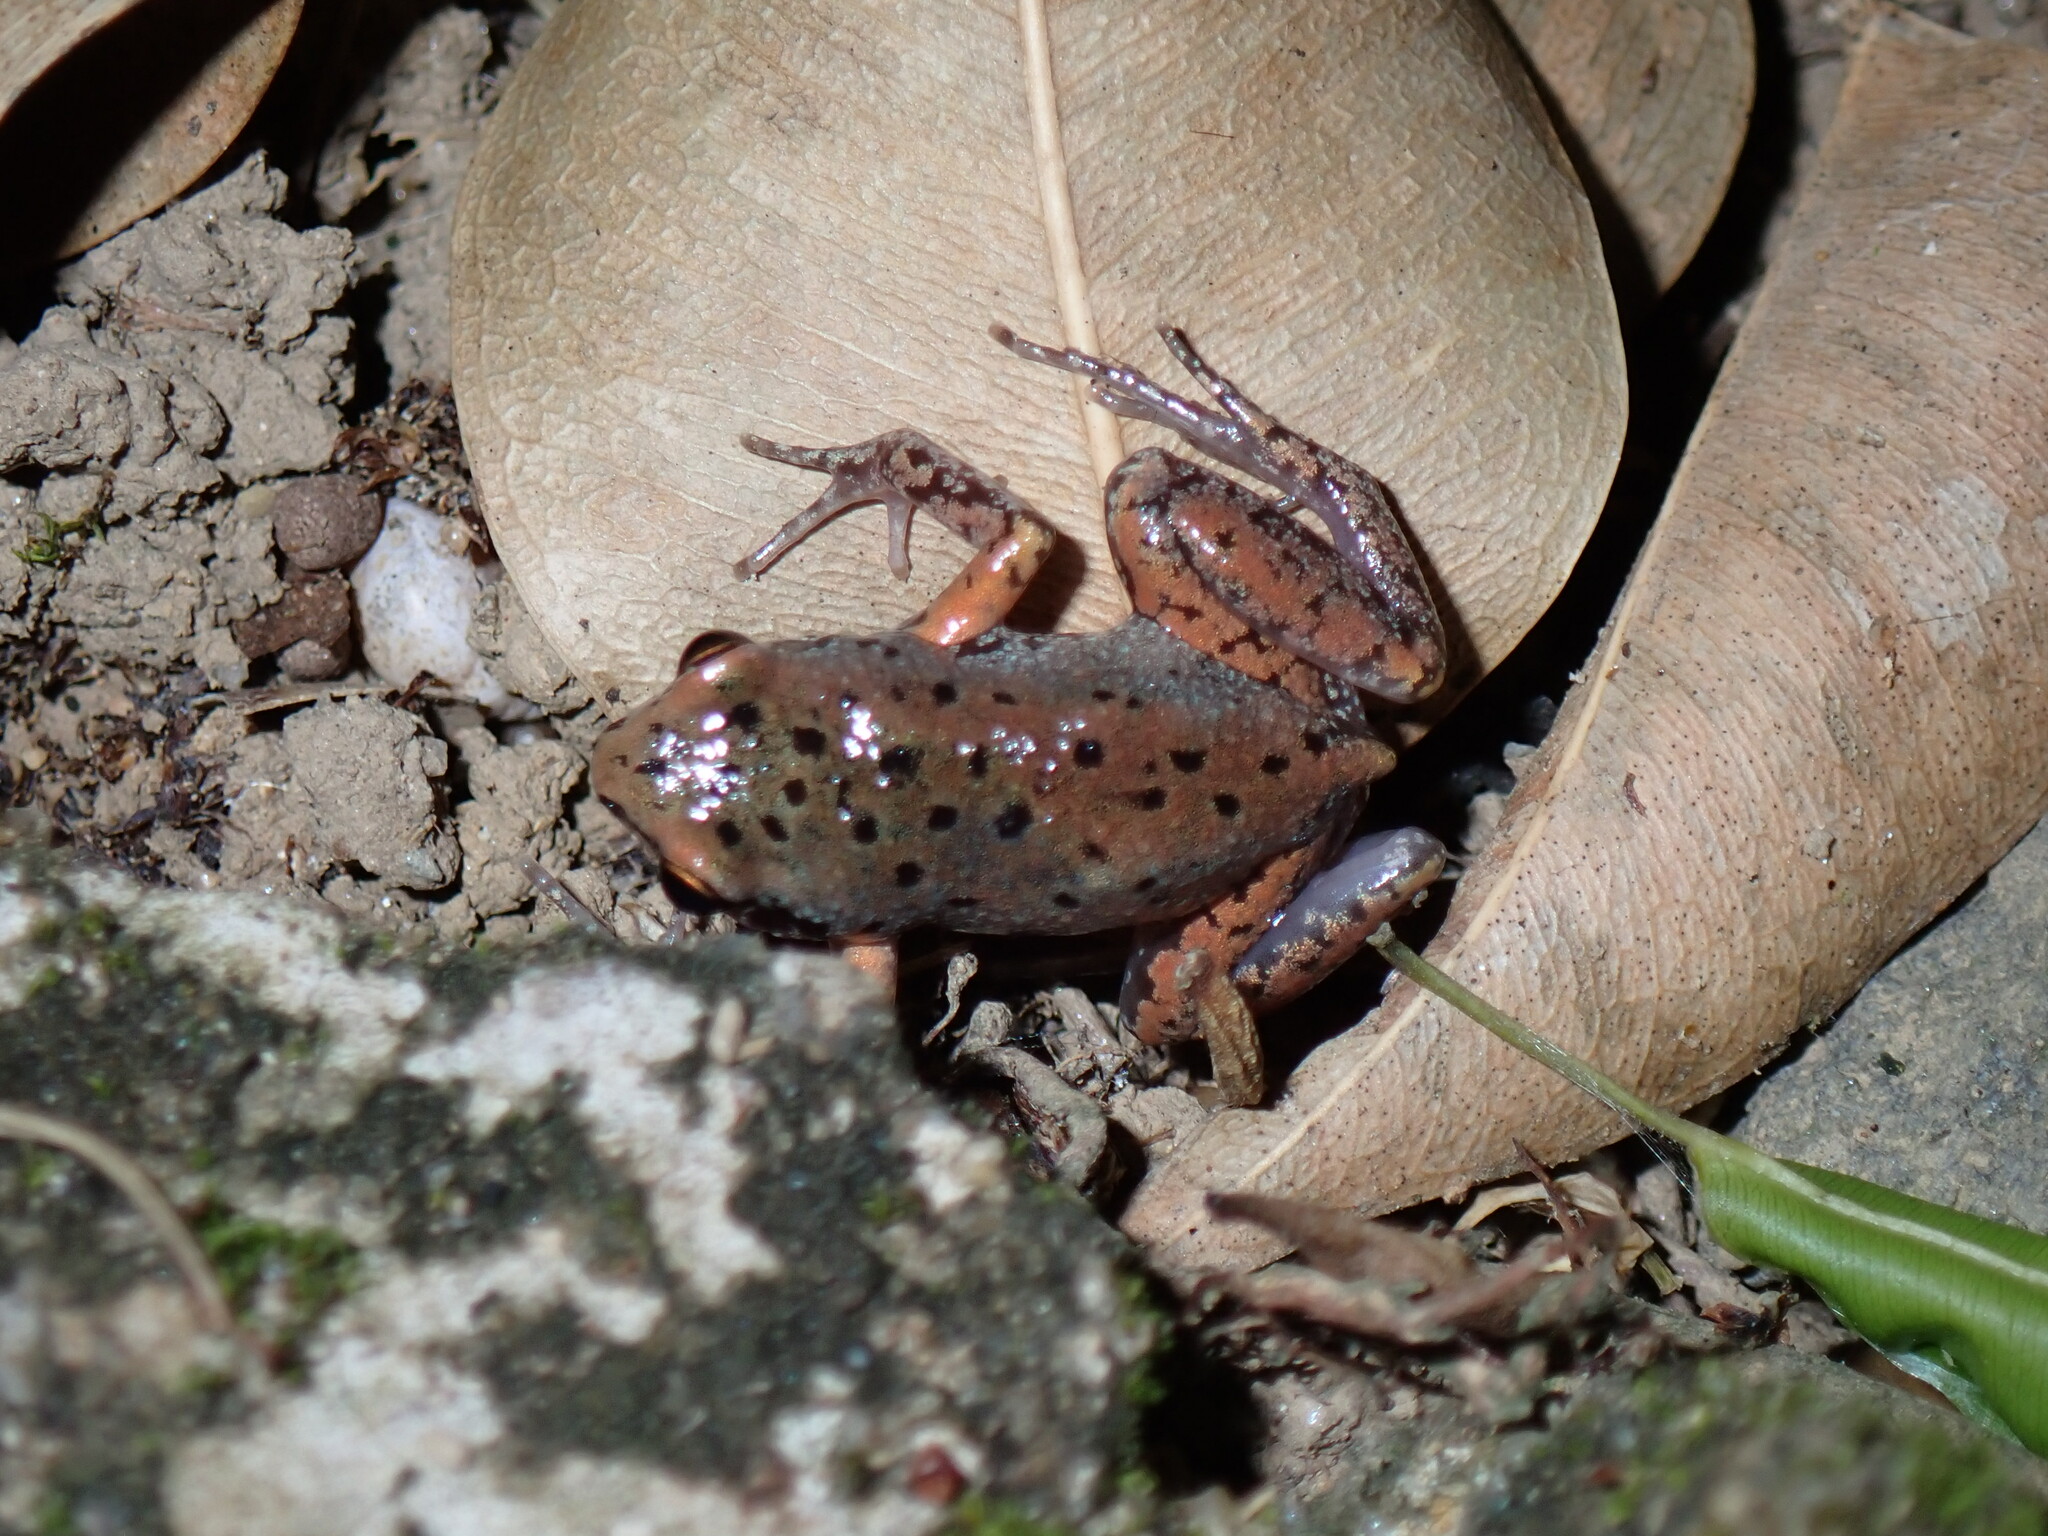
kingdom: Animalia
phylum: Chordata
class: Amphibia
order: Anura
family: Microhylidae
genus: Micryletta
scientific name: Micryletta erythropoda
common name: Mada paddy frog
